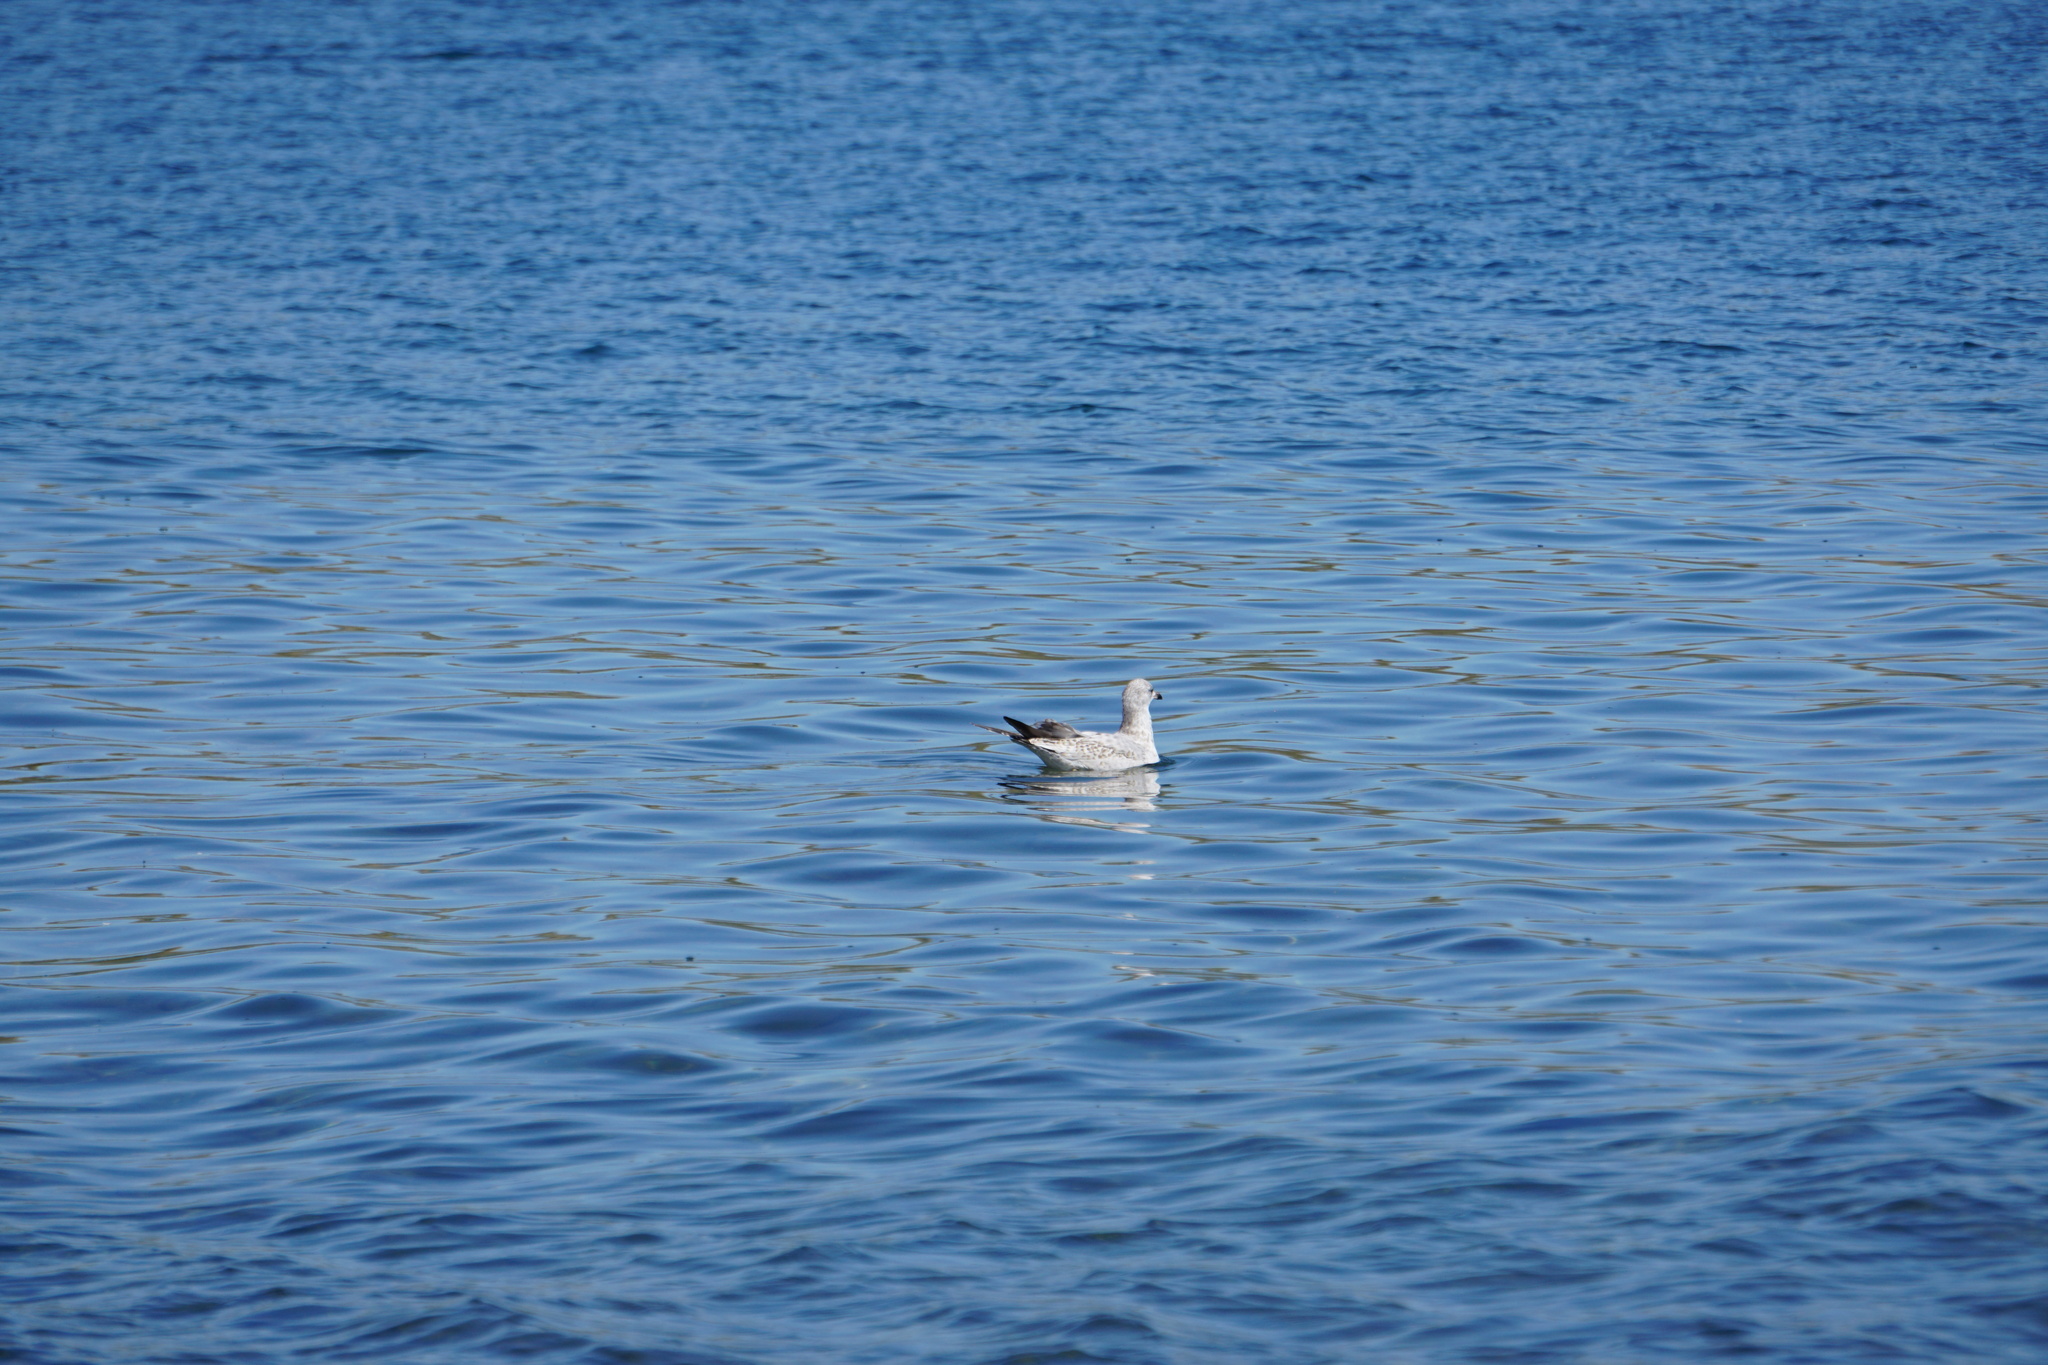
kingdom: Animalia
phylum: Chordata
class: Aves
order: Charadriiformes
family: Laridae
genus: Larus
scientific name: Larus delawarensis
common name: Ring-billed gull
